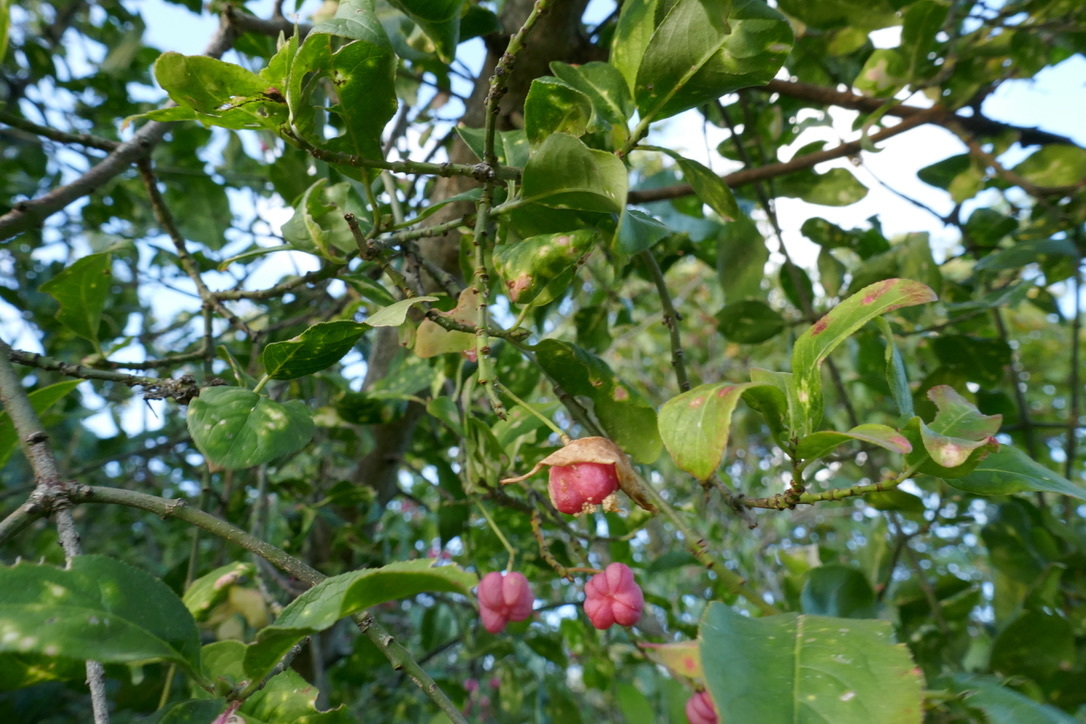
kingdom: Plantae
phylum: Tracheophyta
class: Magnoliopsida
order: Celastrales
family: Celastraceae
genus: Euonymus
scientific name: Euonymus europaeus
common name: Spindle
